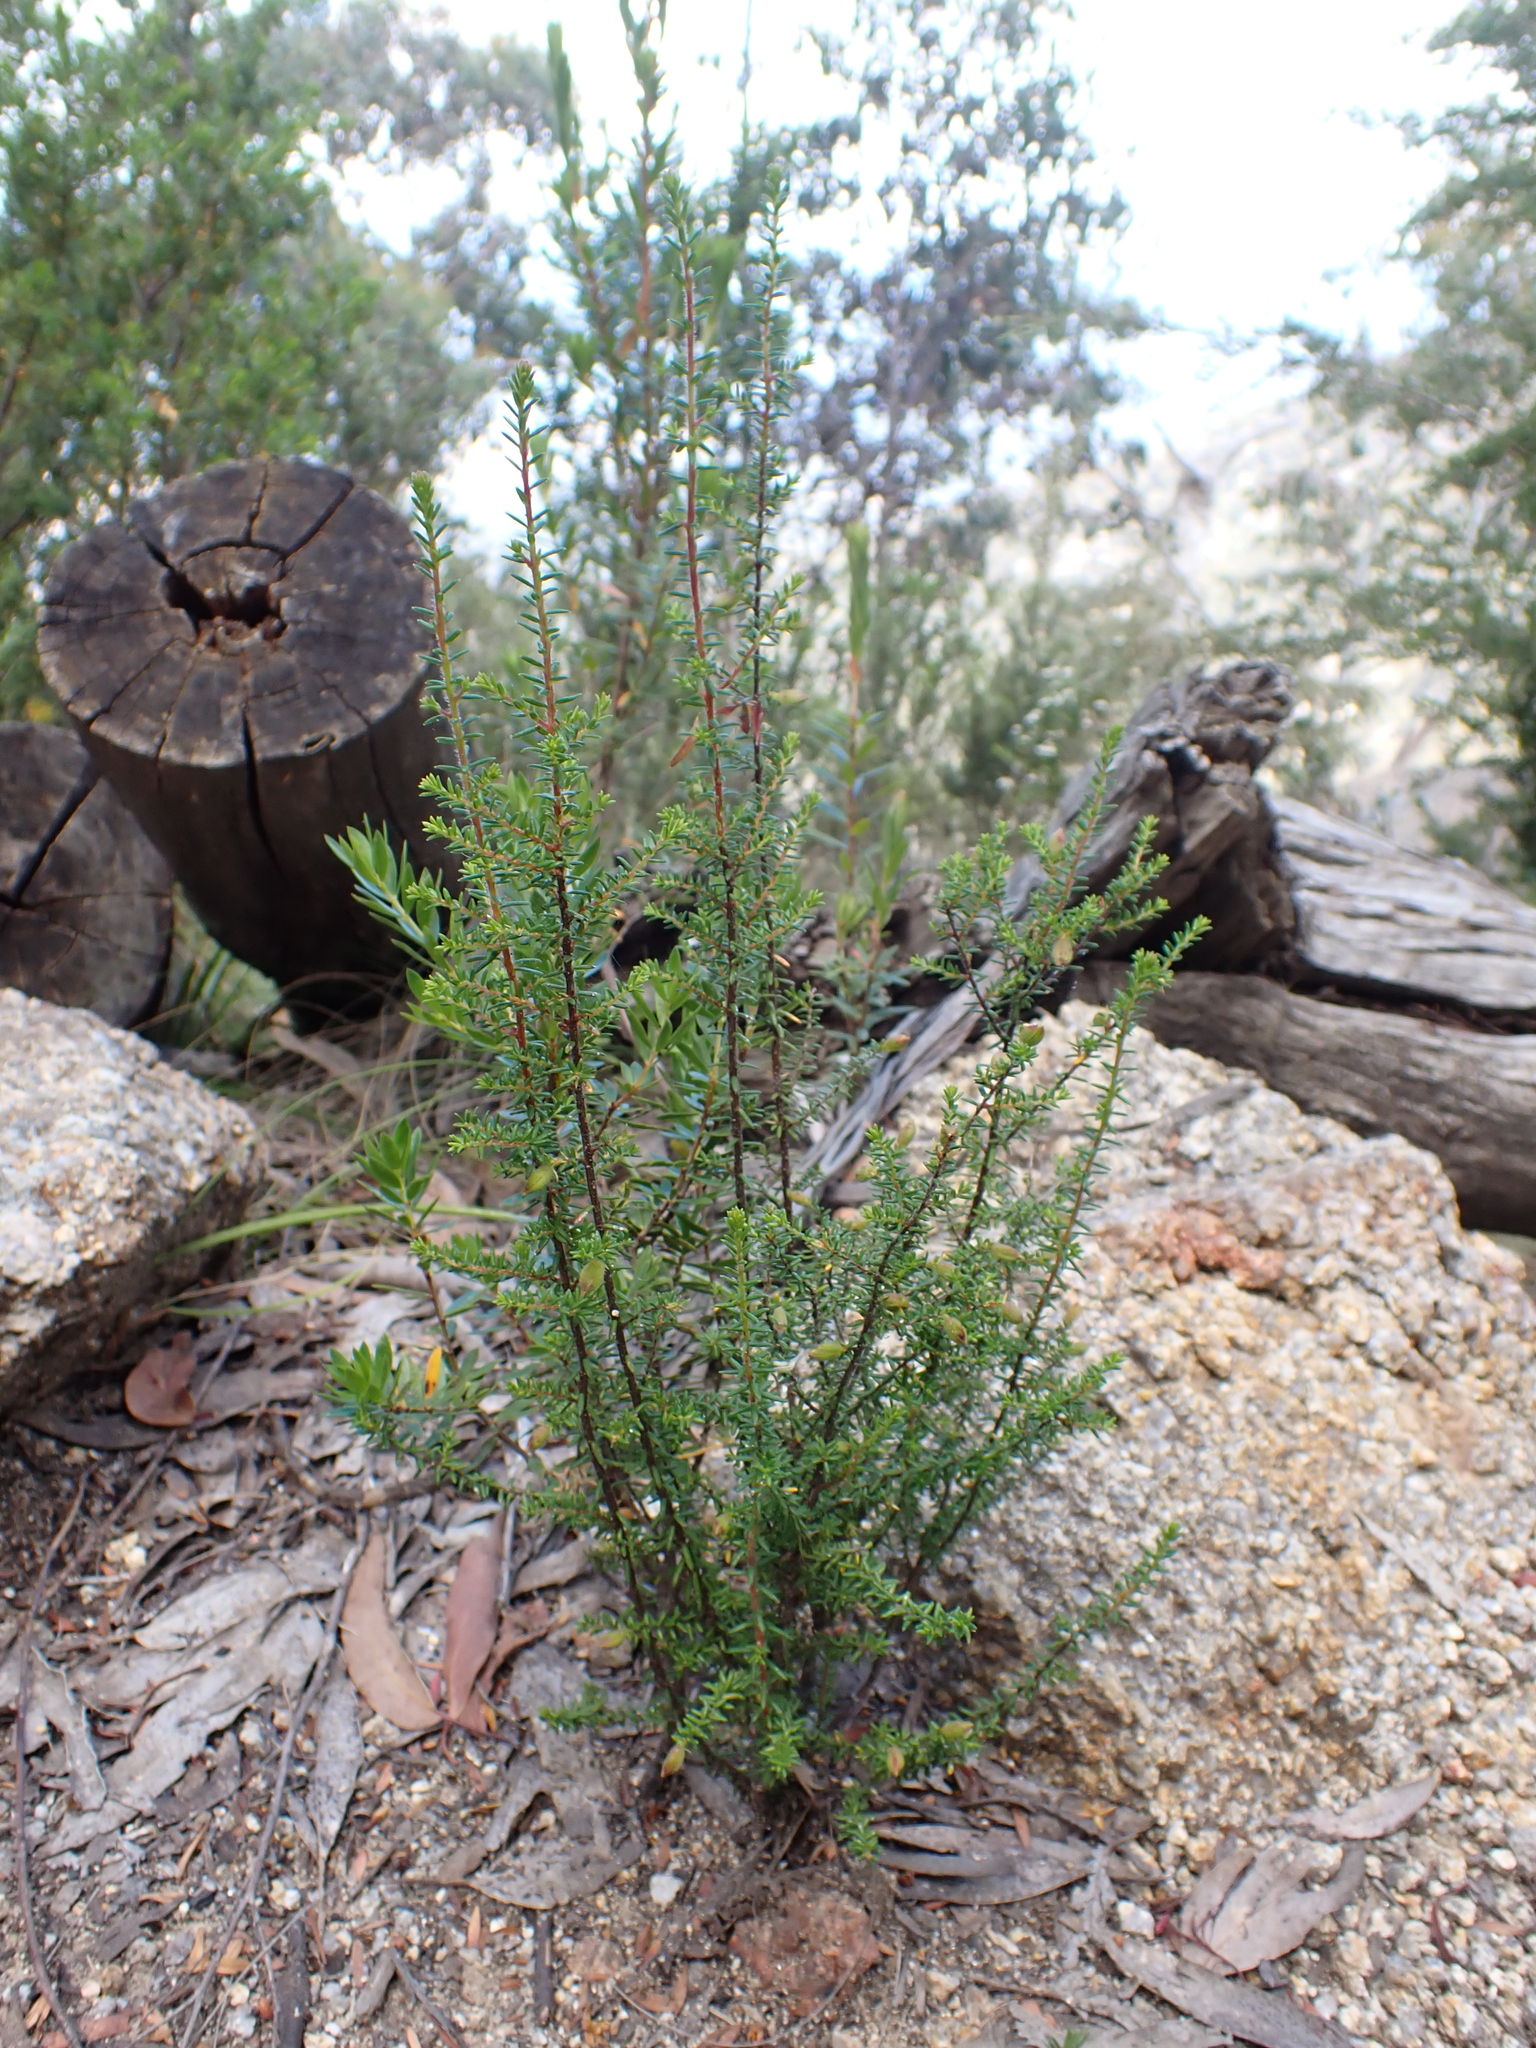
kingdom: Plantae
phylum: Tracheophyta
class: Magnoliopsida
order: Dilleniales
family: Dilleniaceae
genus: Hibbertia
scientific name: Hibbertia ericifolia
